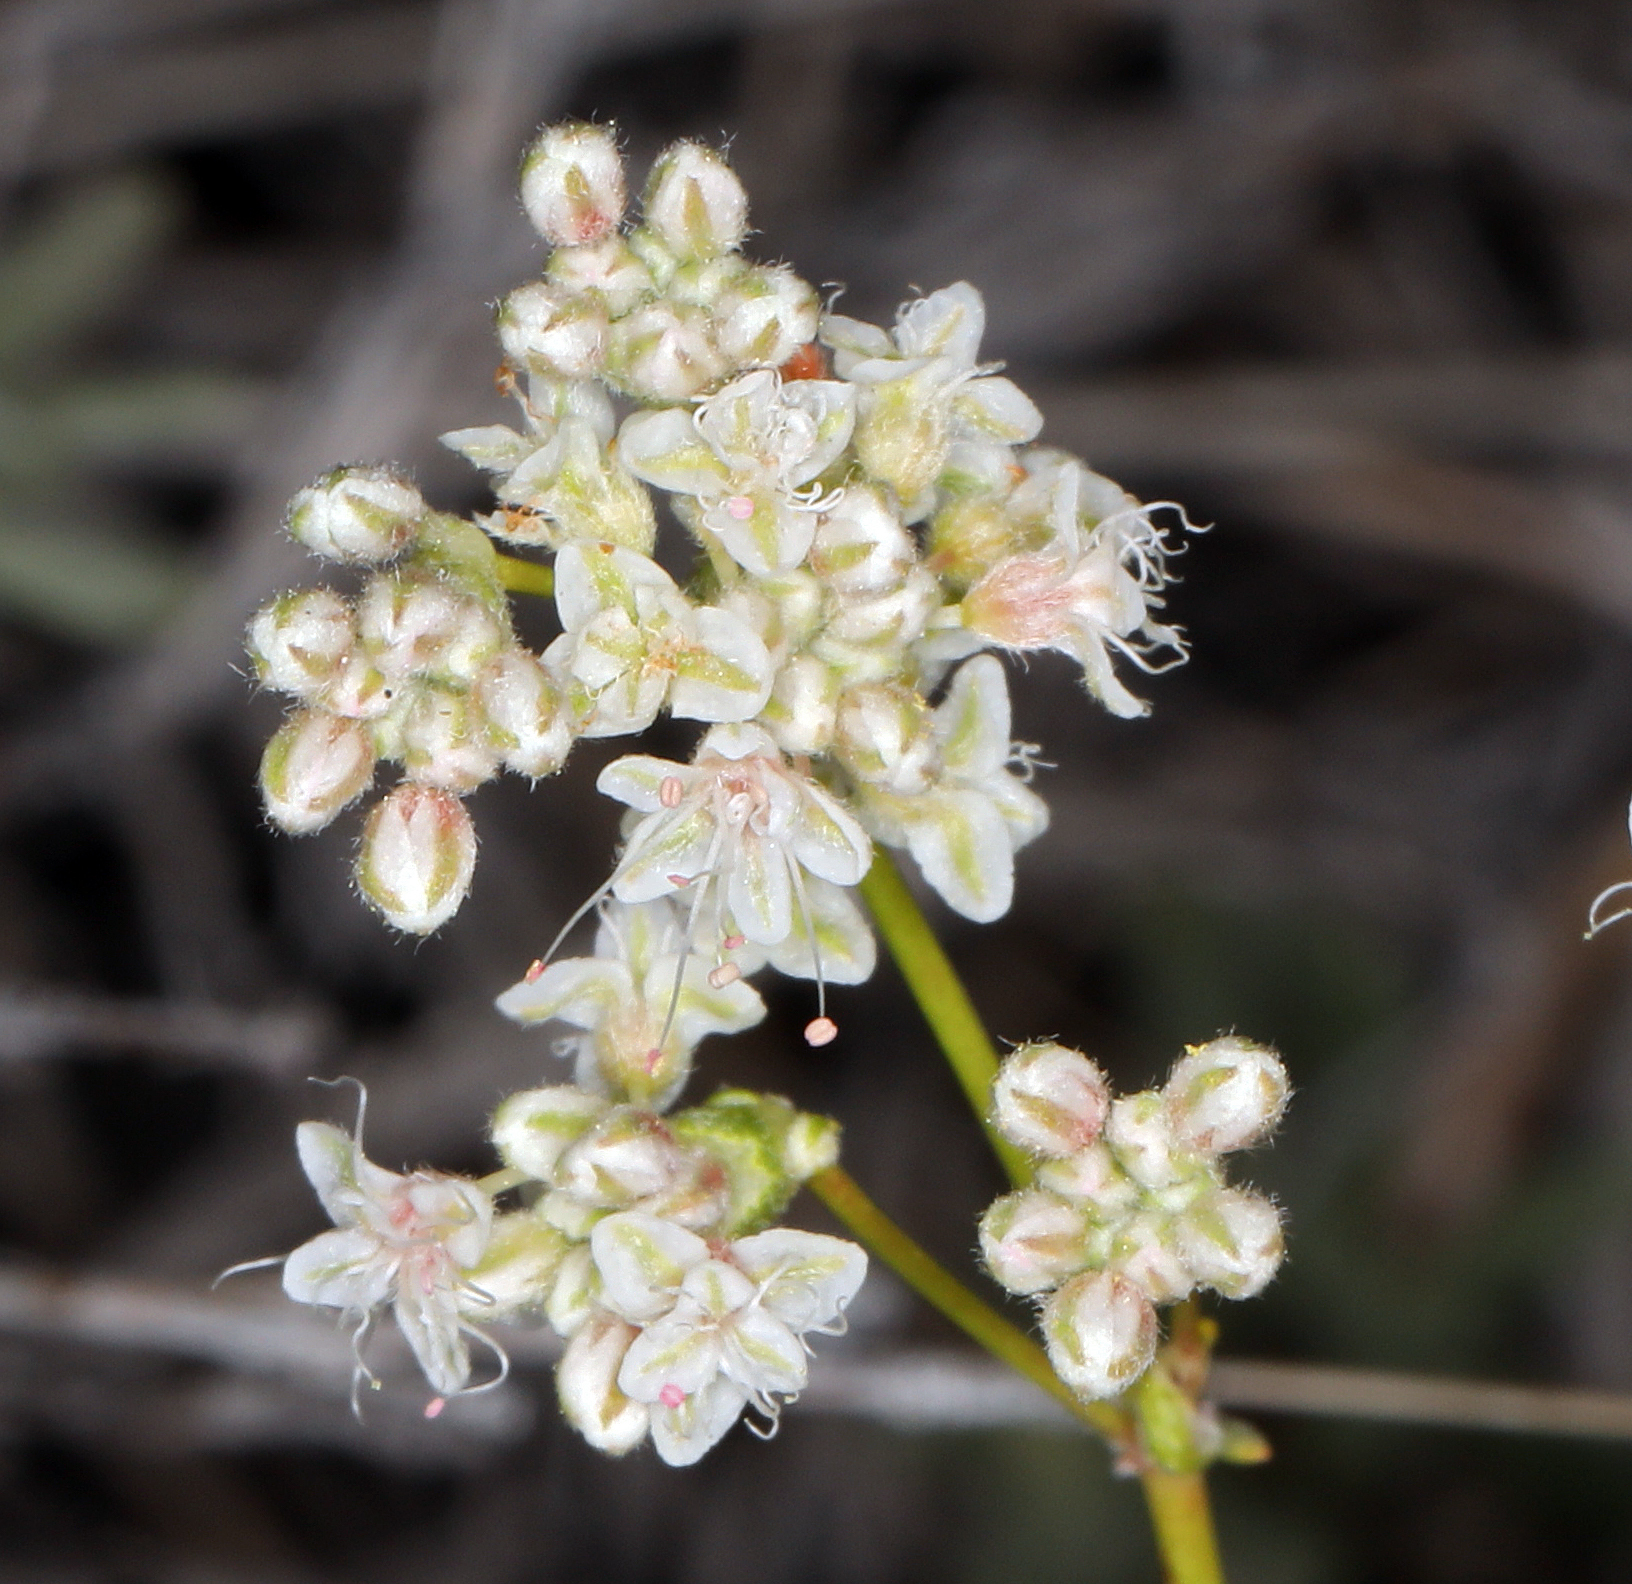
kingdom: Plantae
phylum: Tracheophyta
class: Magnoliopsida
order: Caryophyllales
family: Polygonaceae
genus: Eriogonum
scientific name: Eriogonum wrightii
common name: Bastard-sage
